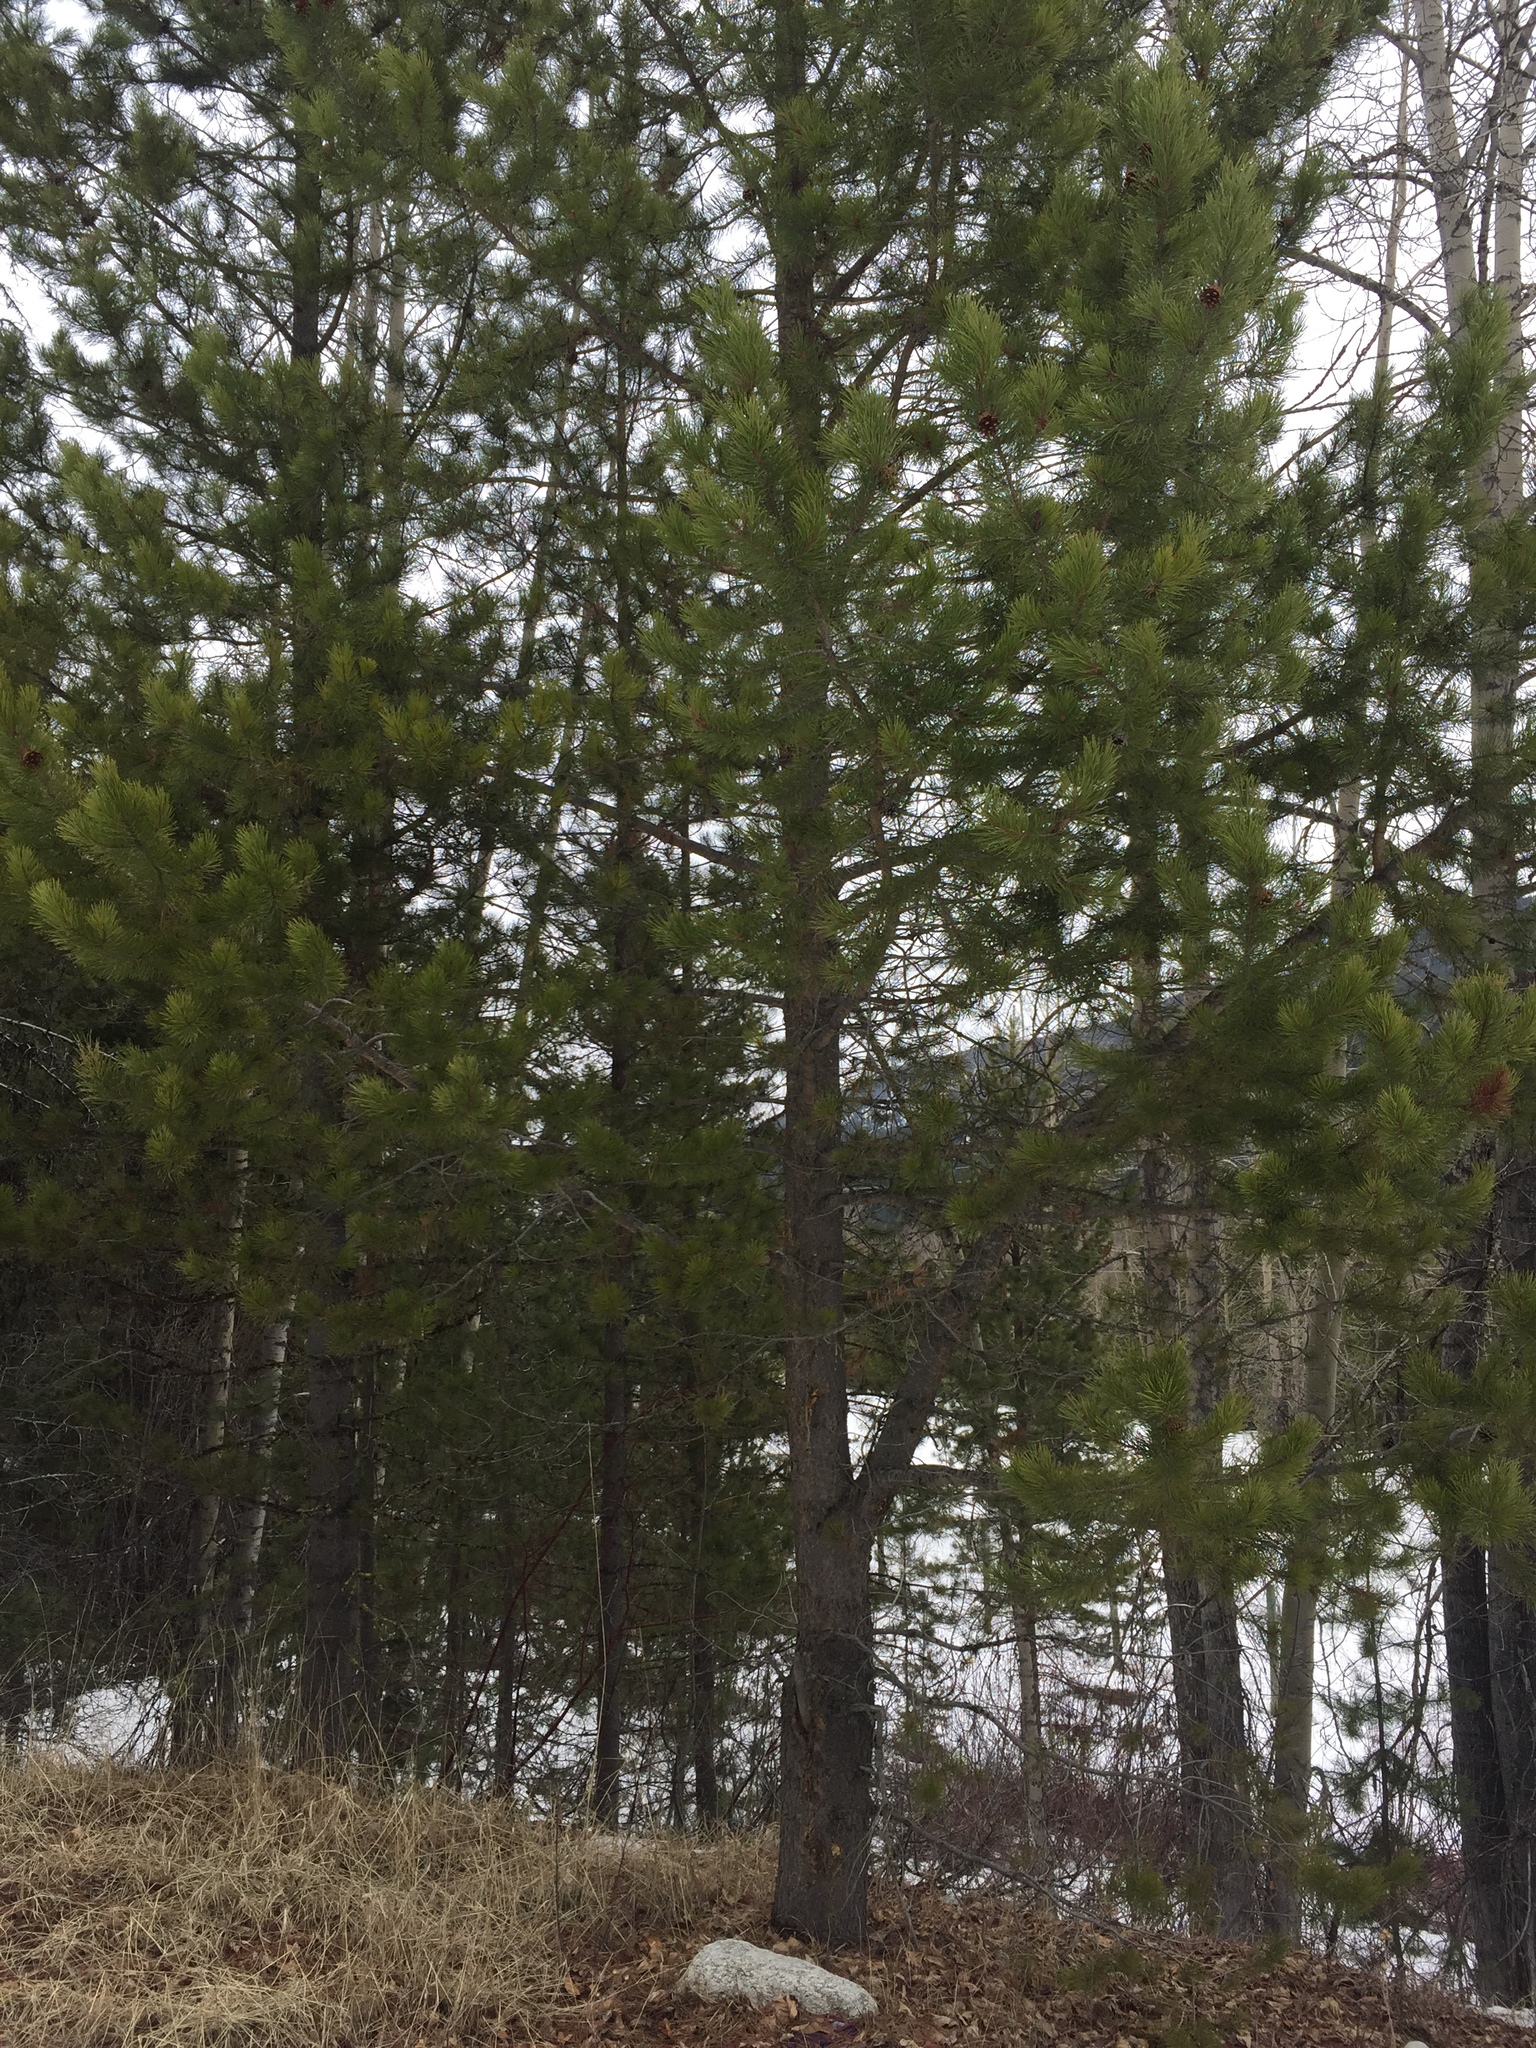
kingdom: Plantae
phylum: Tracheophyta
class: Pinopsida
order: Pinales
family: Pinaceae
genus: Pinus
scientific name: Pinus contorta
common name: Lodgepole pine
